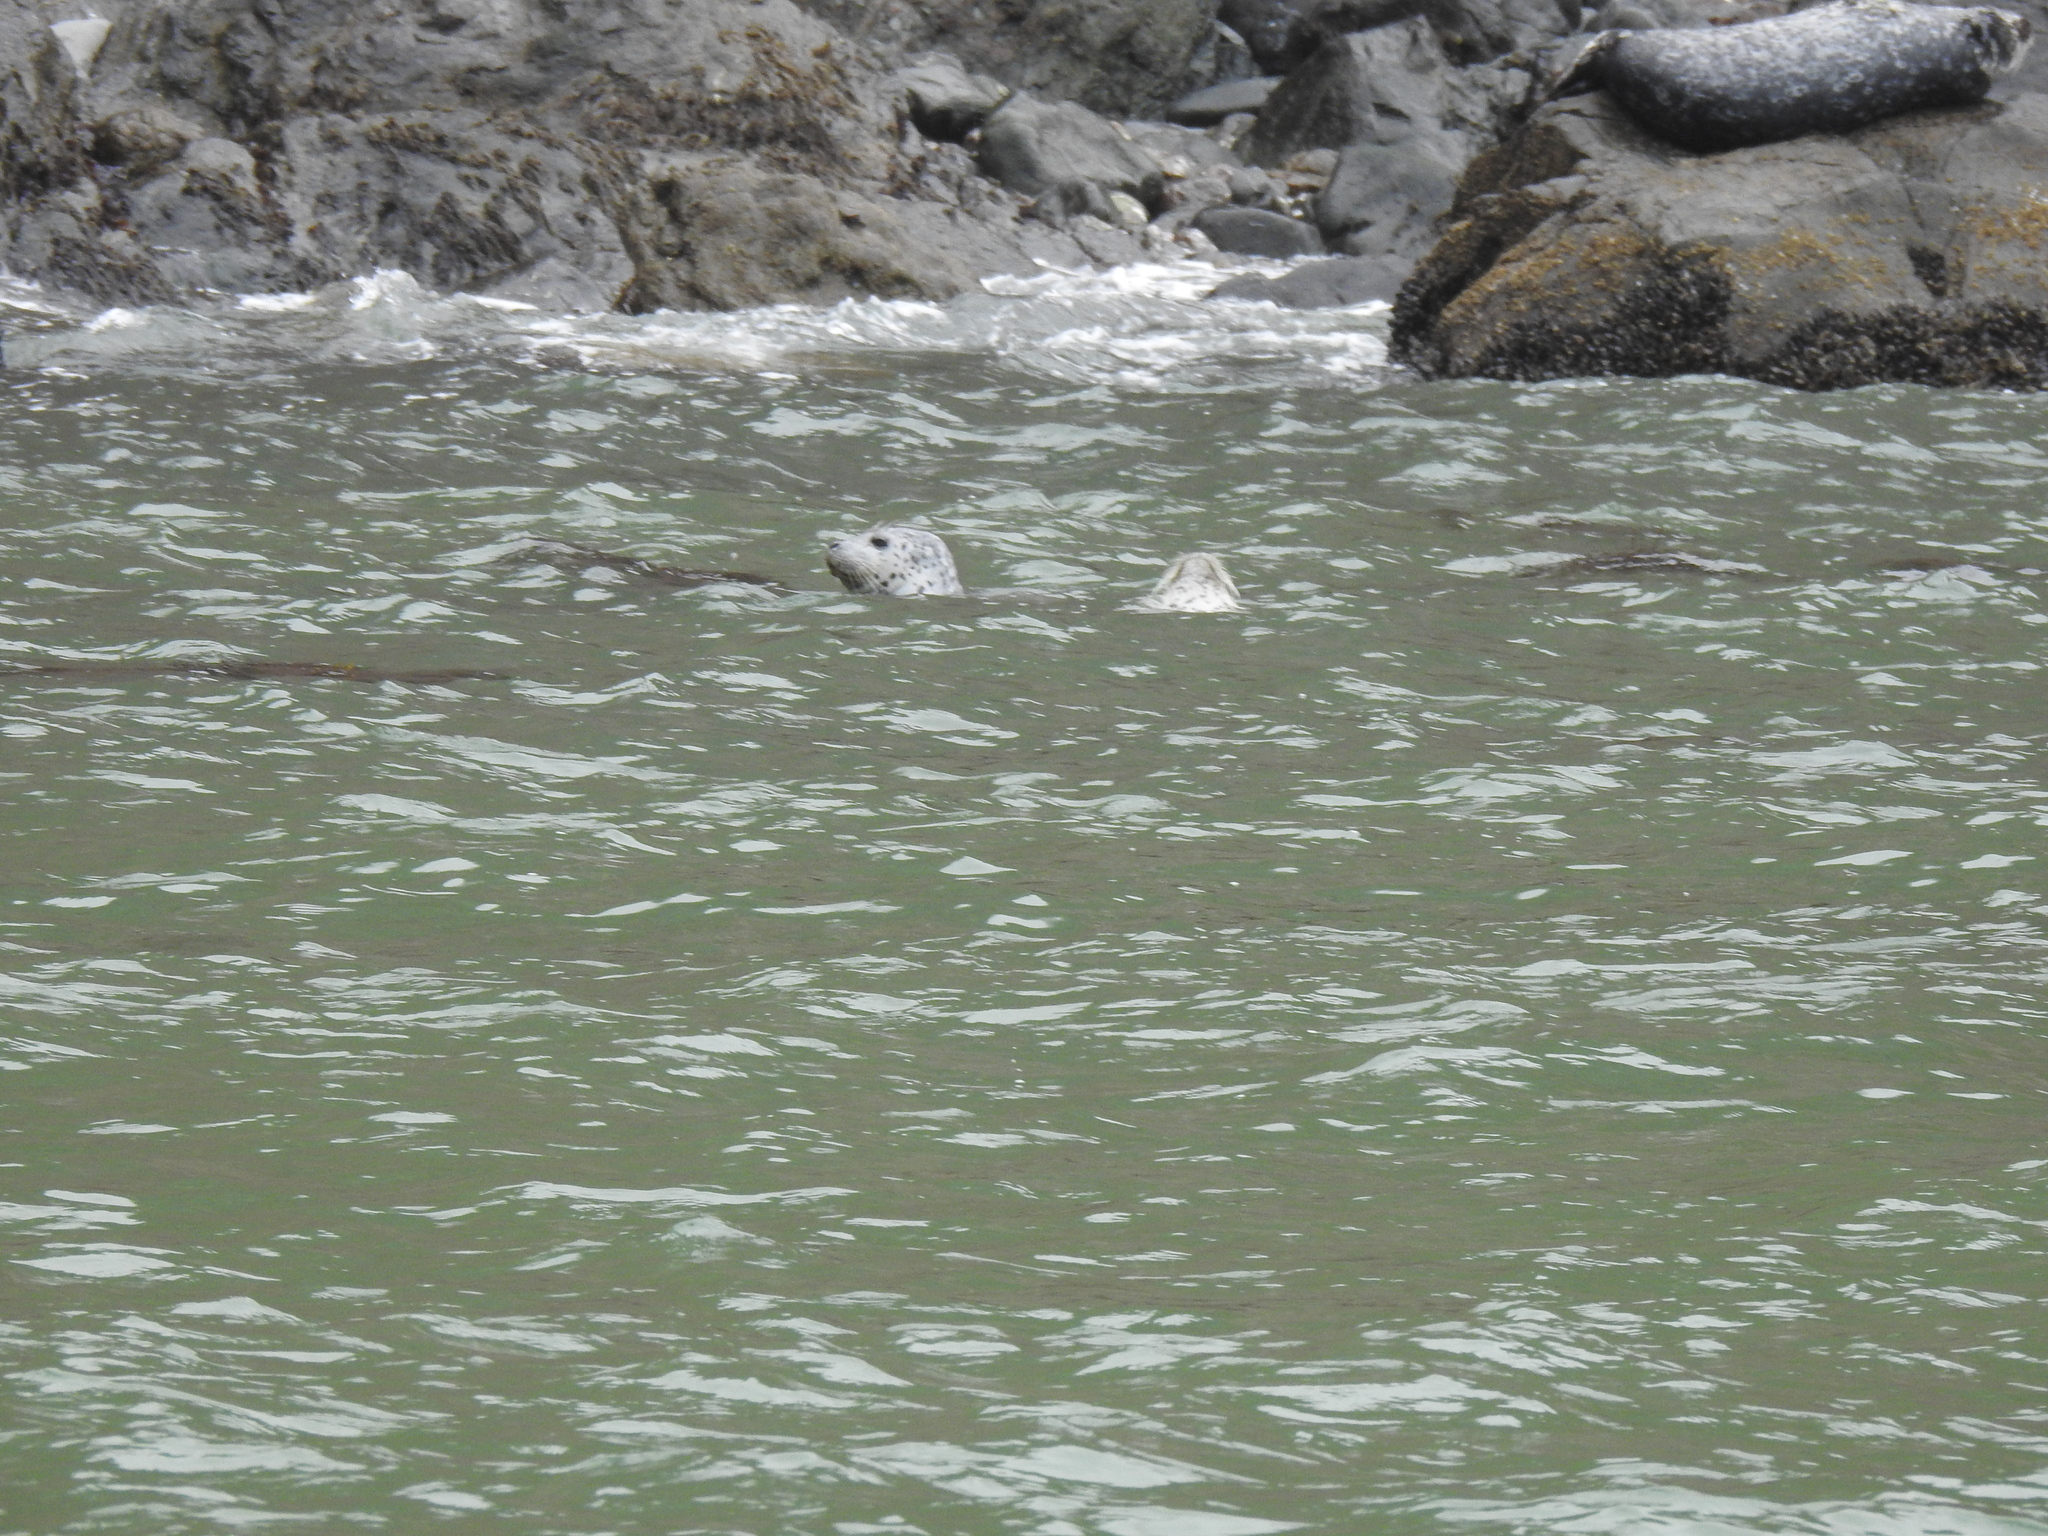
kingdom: Animalia
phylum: Chordata
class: Mammalia
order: Carnivora
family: Phocidae
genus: Phoca
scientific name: Phoca vitulina
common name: Harbor seal
